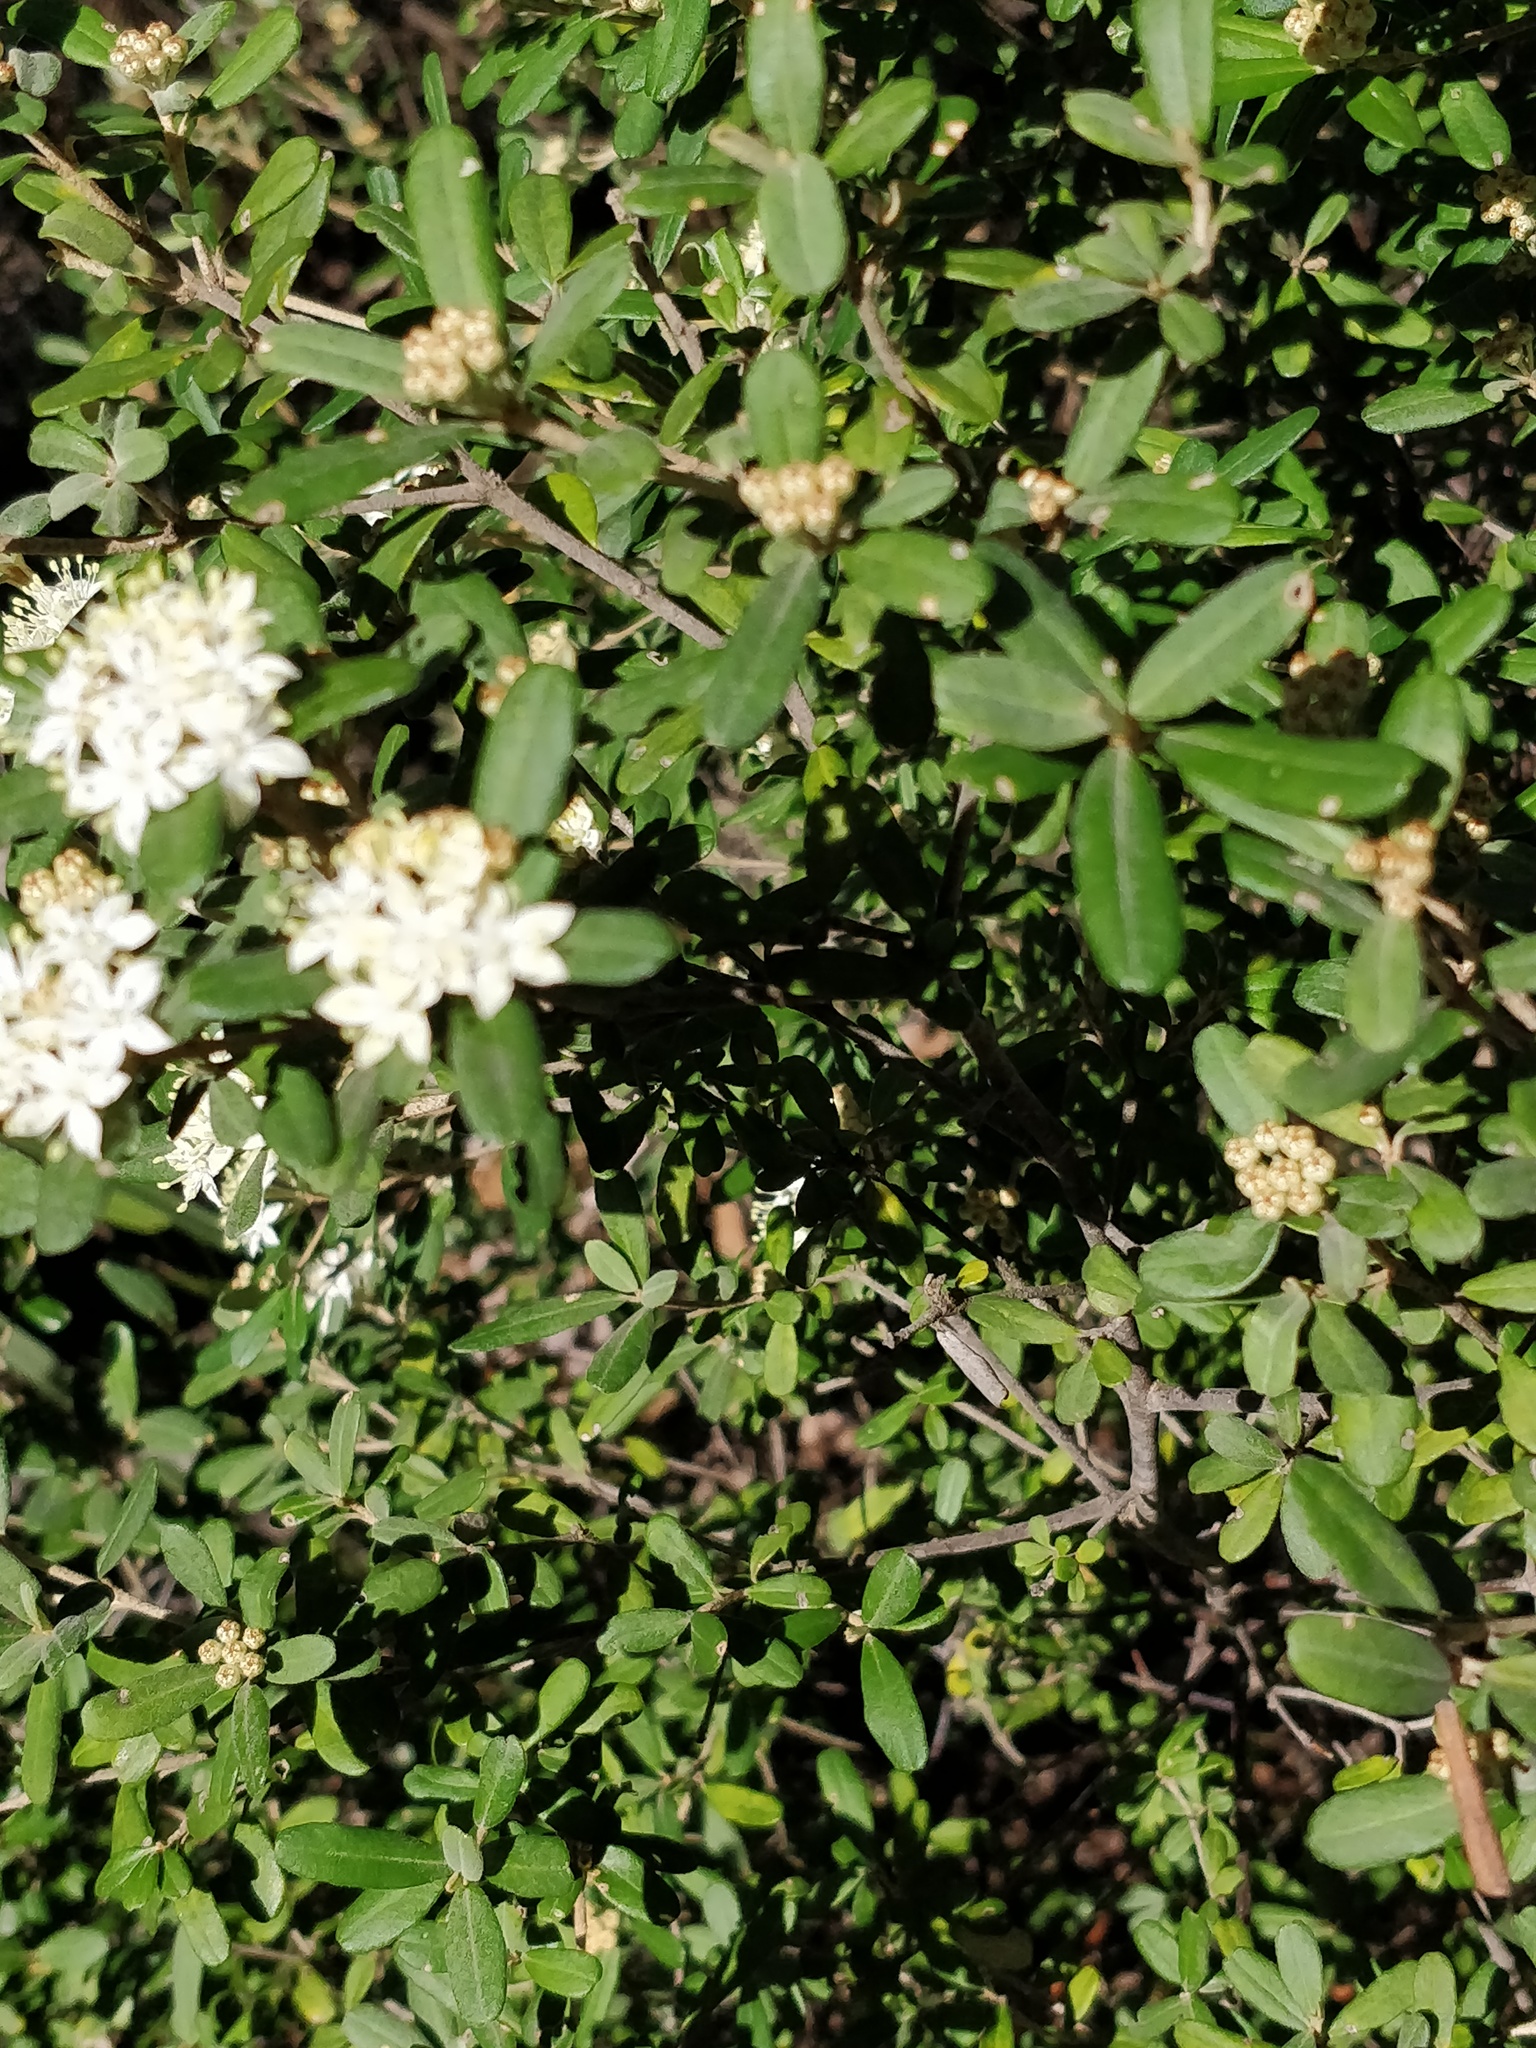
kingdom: Plantae
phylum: Tracheophyta
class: Magnoliopsida
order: Sapindales
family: Rutaceae
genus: Phebalium
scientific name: Phebalium squamulosum
